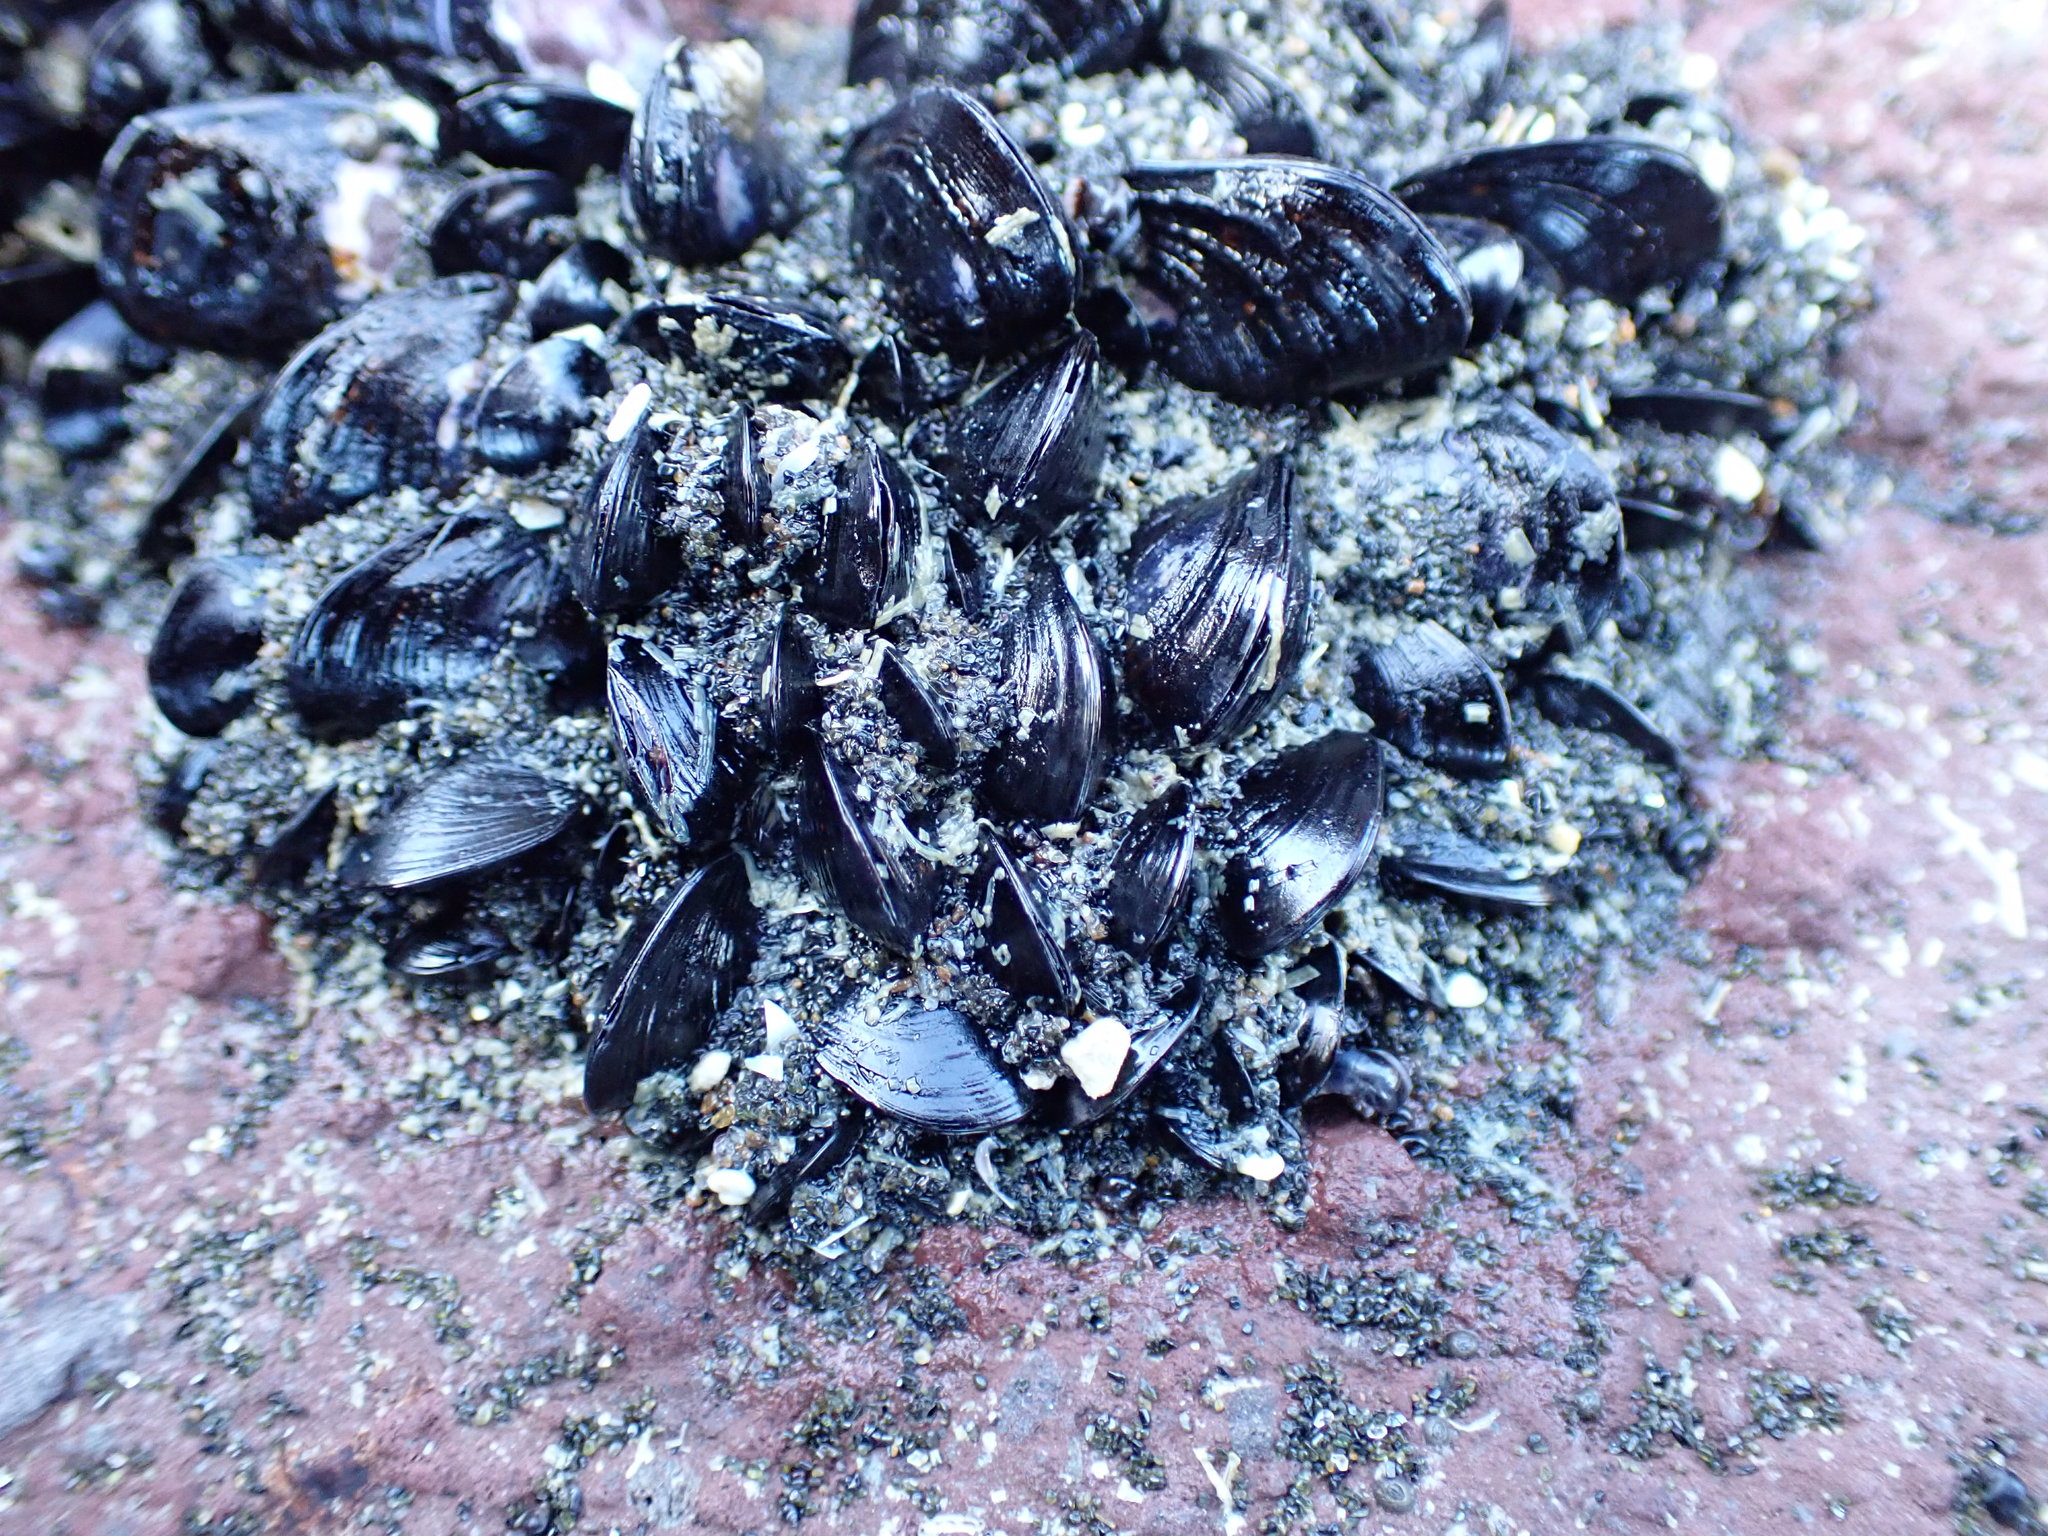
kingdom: Animalia
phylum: Mollusca
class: Bivalvia
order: Mytilida
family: Mytilidae
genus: Xenostrobus
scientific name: Xenostrobus neozelanicus
